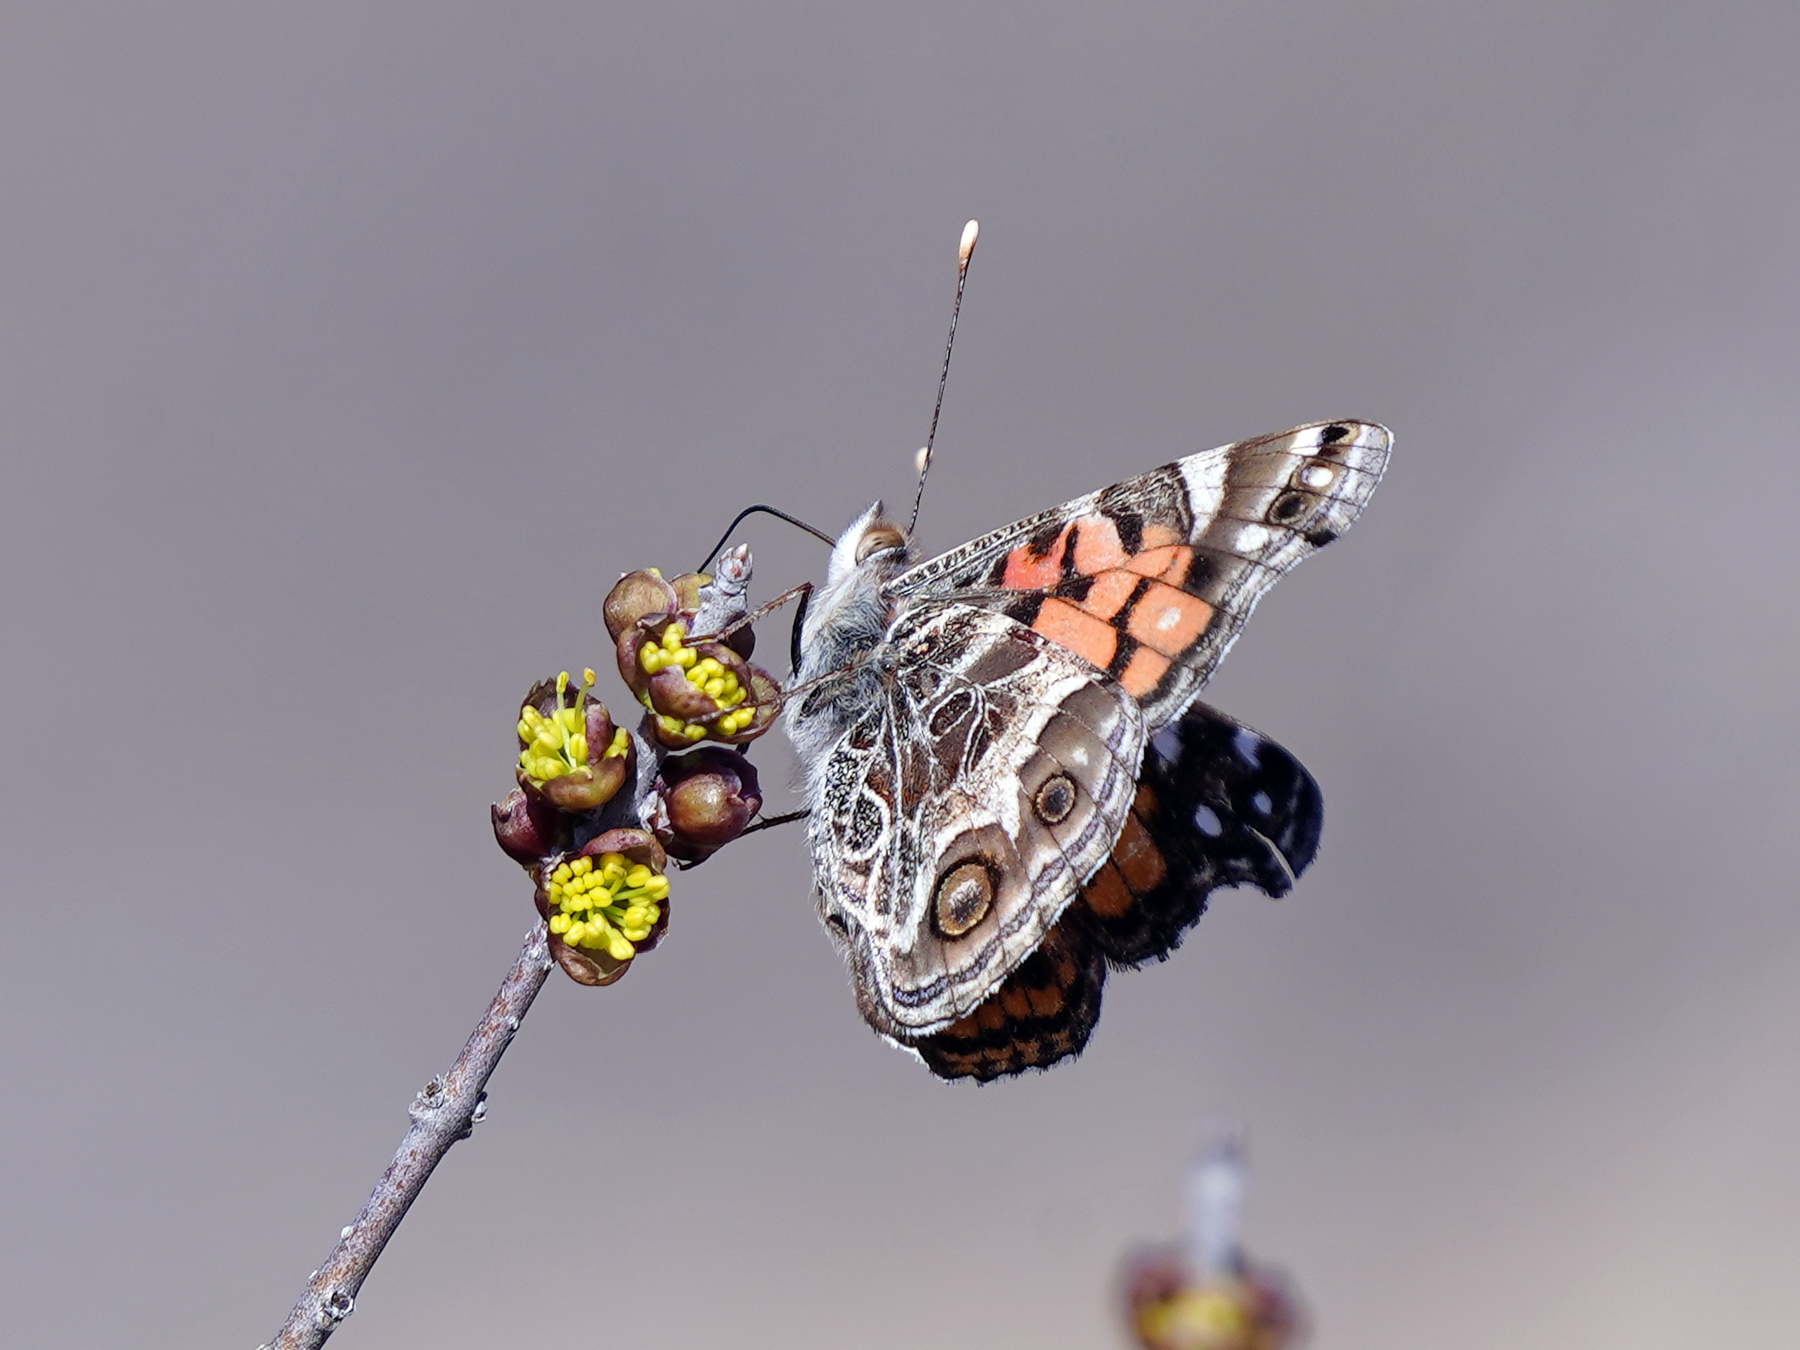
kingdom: Animalia
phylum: Arthropoda
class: Insecta
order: Lepidoptera
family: Nymphalidae
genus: Vanessa
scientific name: Vanessa virginiensis
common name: American lady
